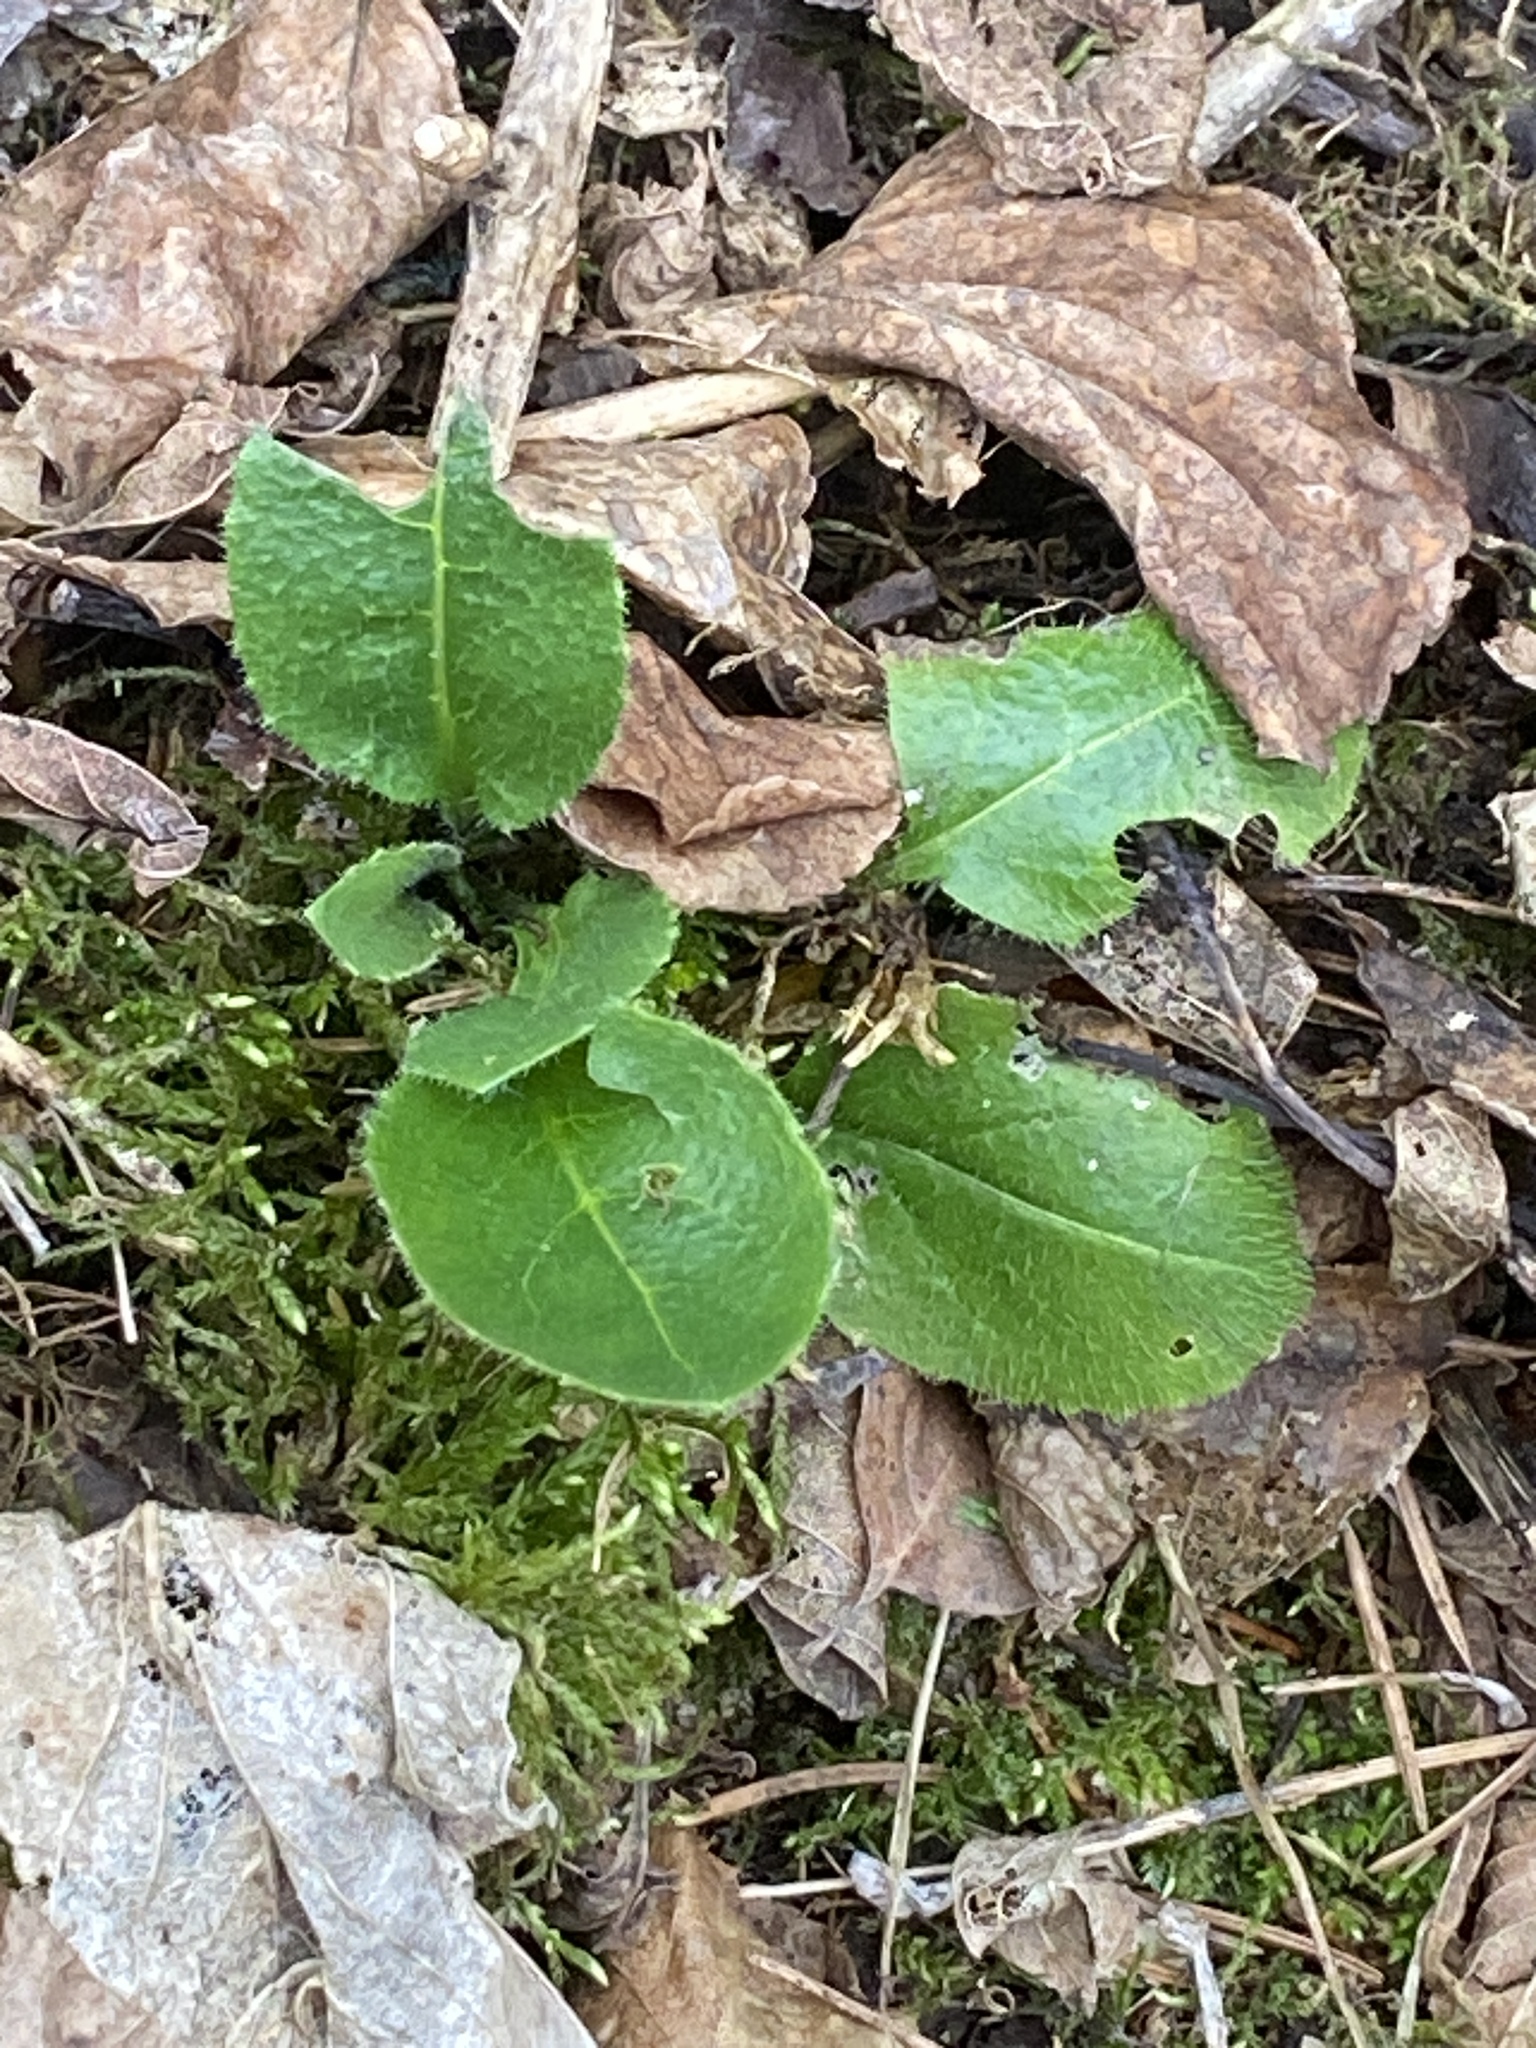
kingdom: Plantae
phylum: Tracheophyta
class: Magnoliopsida
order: Brassicales
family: Brassicaceae
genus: Hesperis
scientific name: Hesperis matronalis
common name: Dame's-violet
